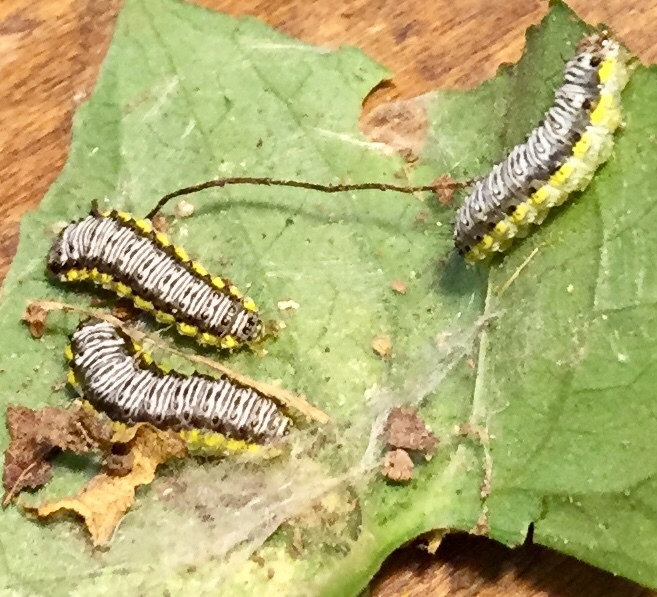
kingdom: Animalia
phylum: Arthropoda
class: Insecta
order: Lepidoptera
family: Crambidae
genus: Evergestis
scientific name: Evergestis rimosalis
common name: Cross-striped cabbageworm moth
